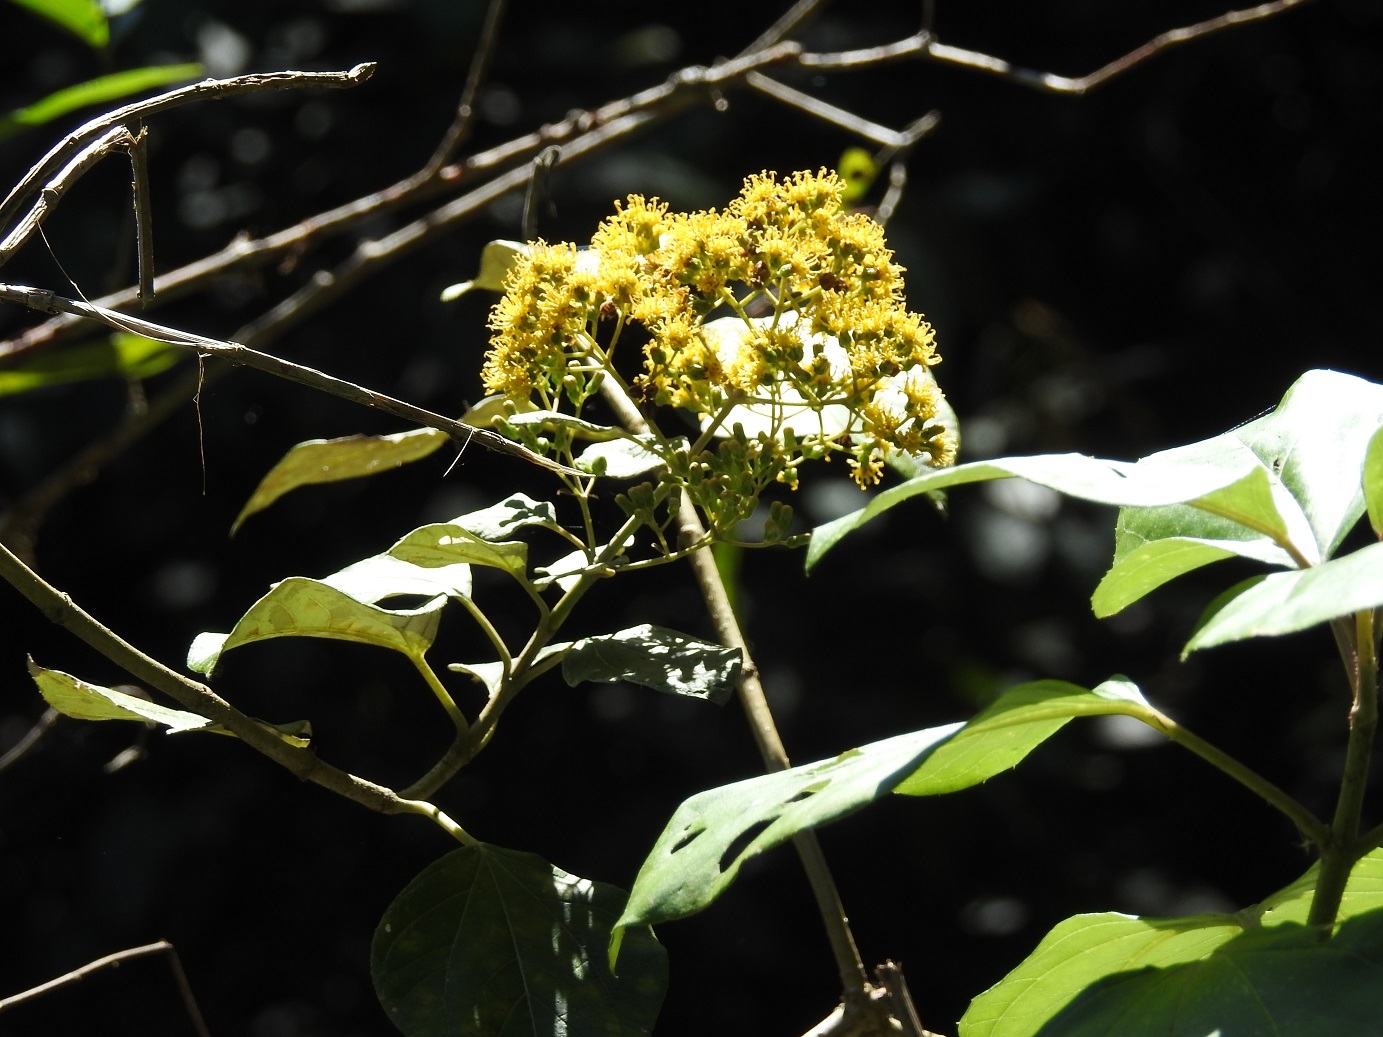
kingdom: Plantae
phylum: Tracheophyta
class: Magnoliopsida
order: Asterales
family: Asteraceae
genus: Sinclairia
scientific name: Sinclairia vagans
